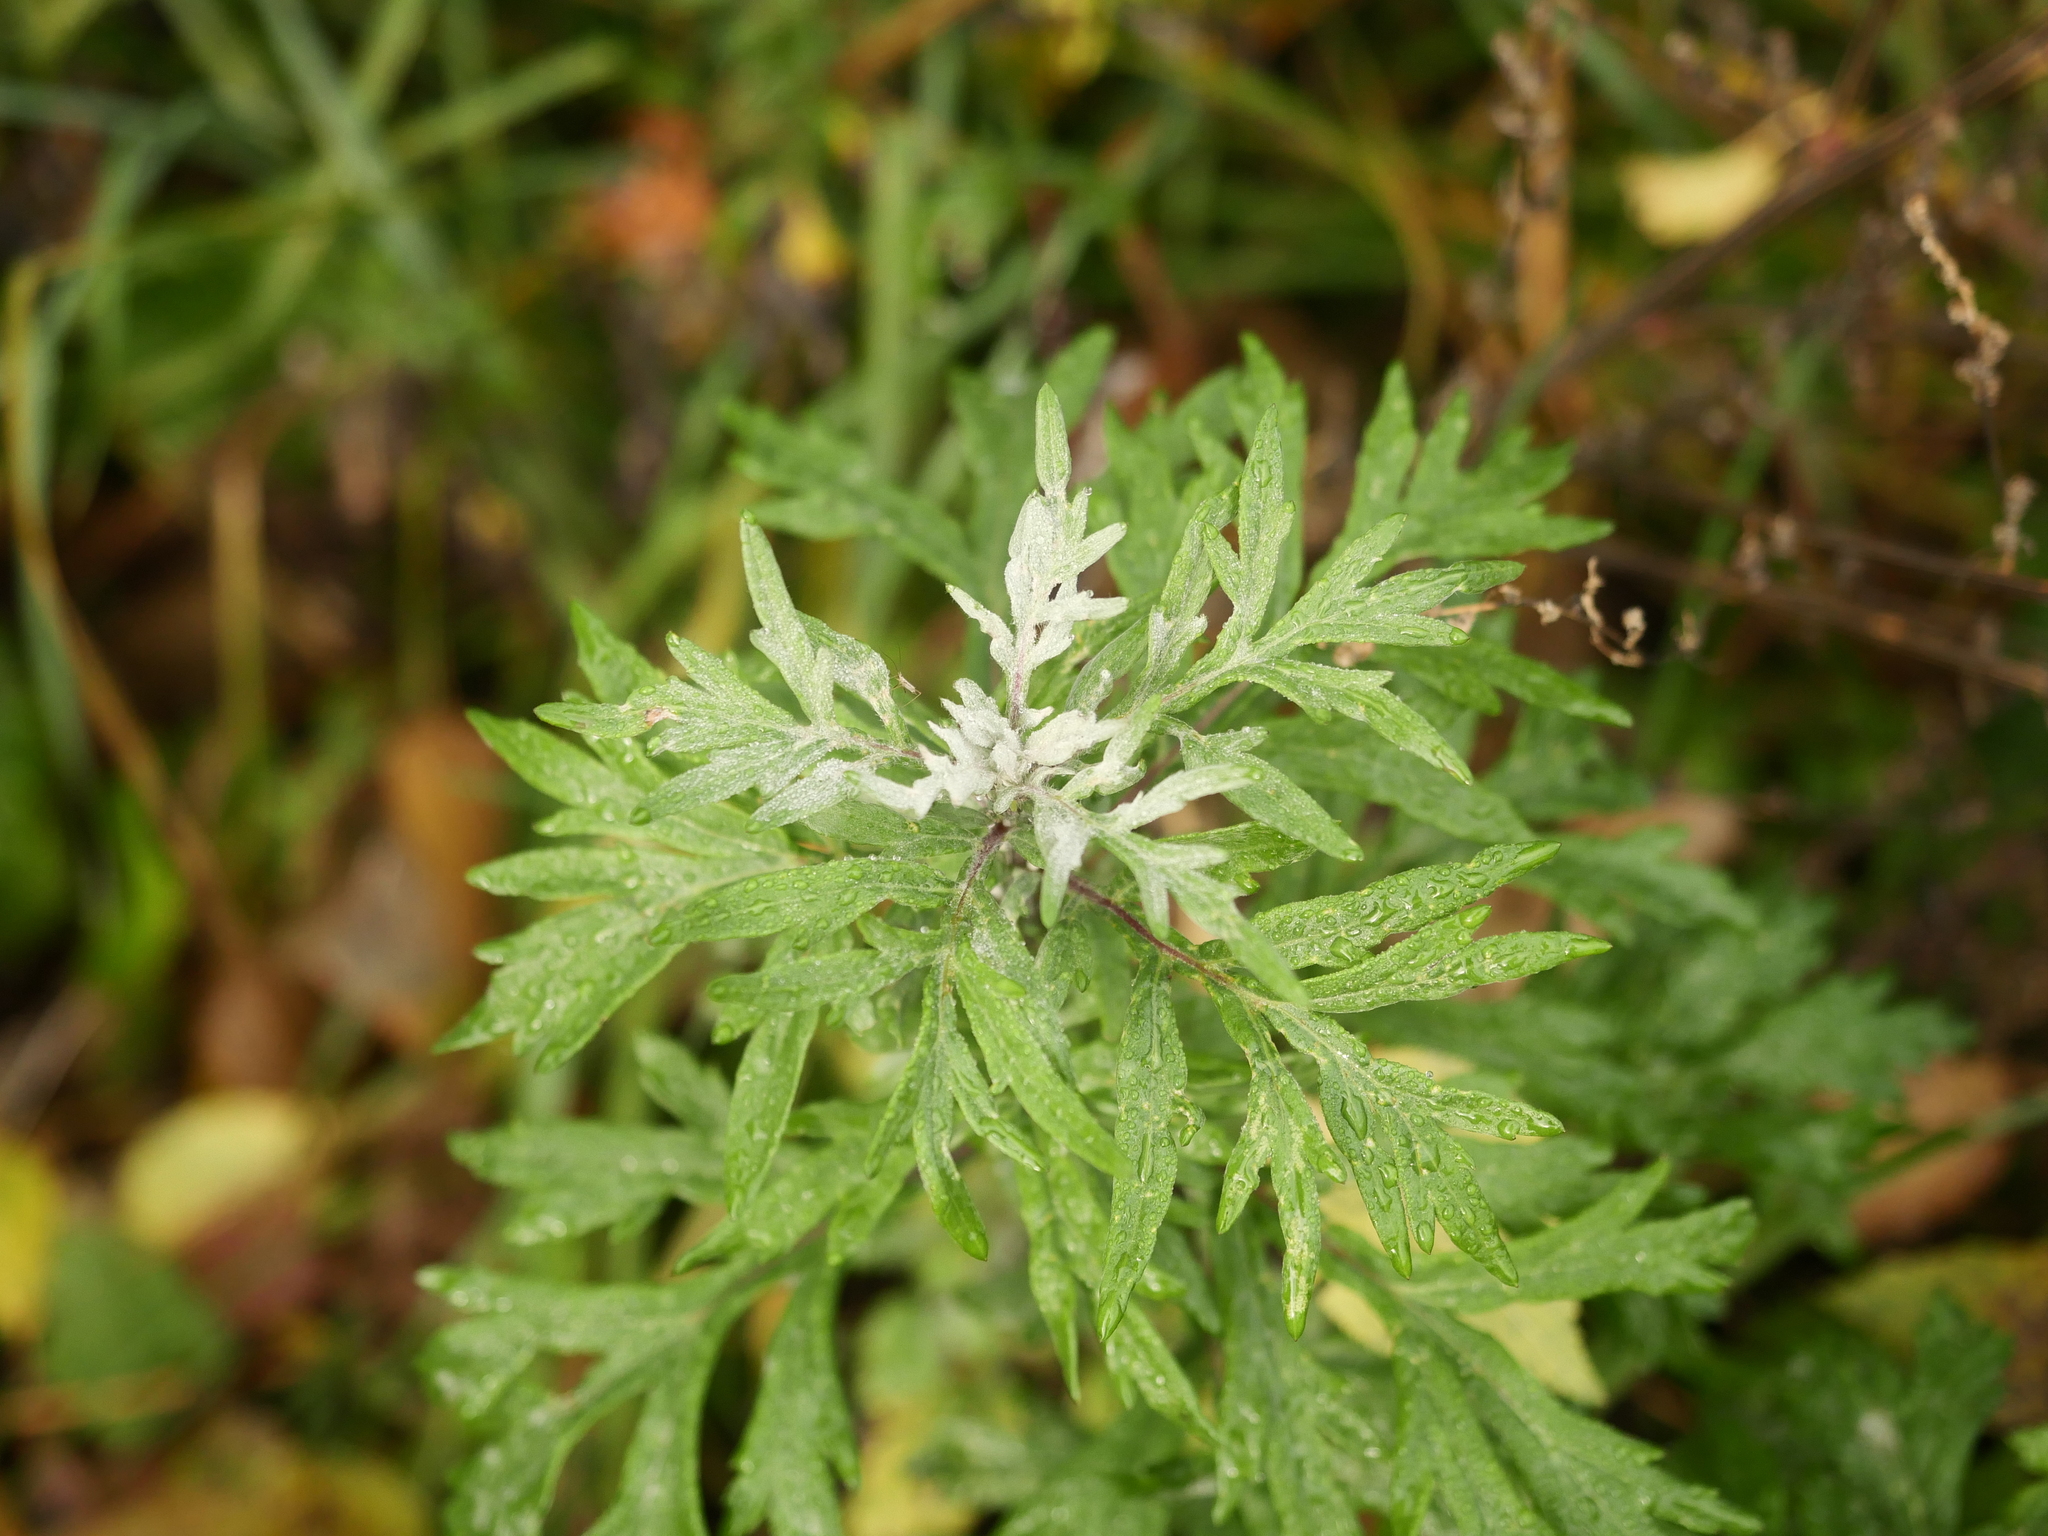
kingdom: Plantae
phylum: Tracheophyta
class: Magnoliopsida
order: Asterales
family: Asteraceae
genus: Artemisia
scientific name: Artemisia vulgaris
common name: Mugwort
